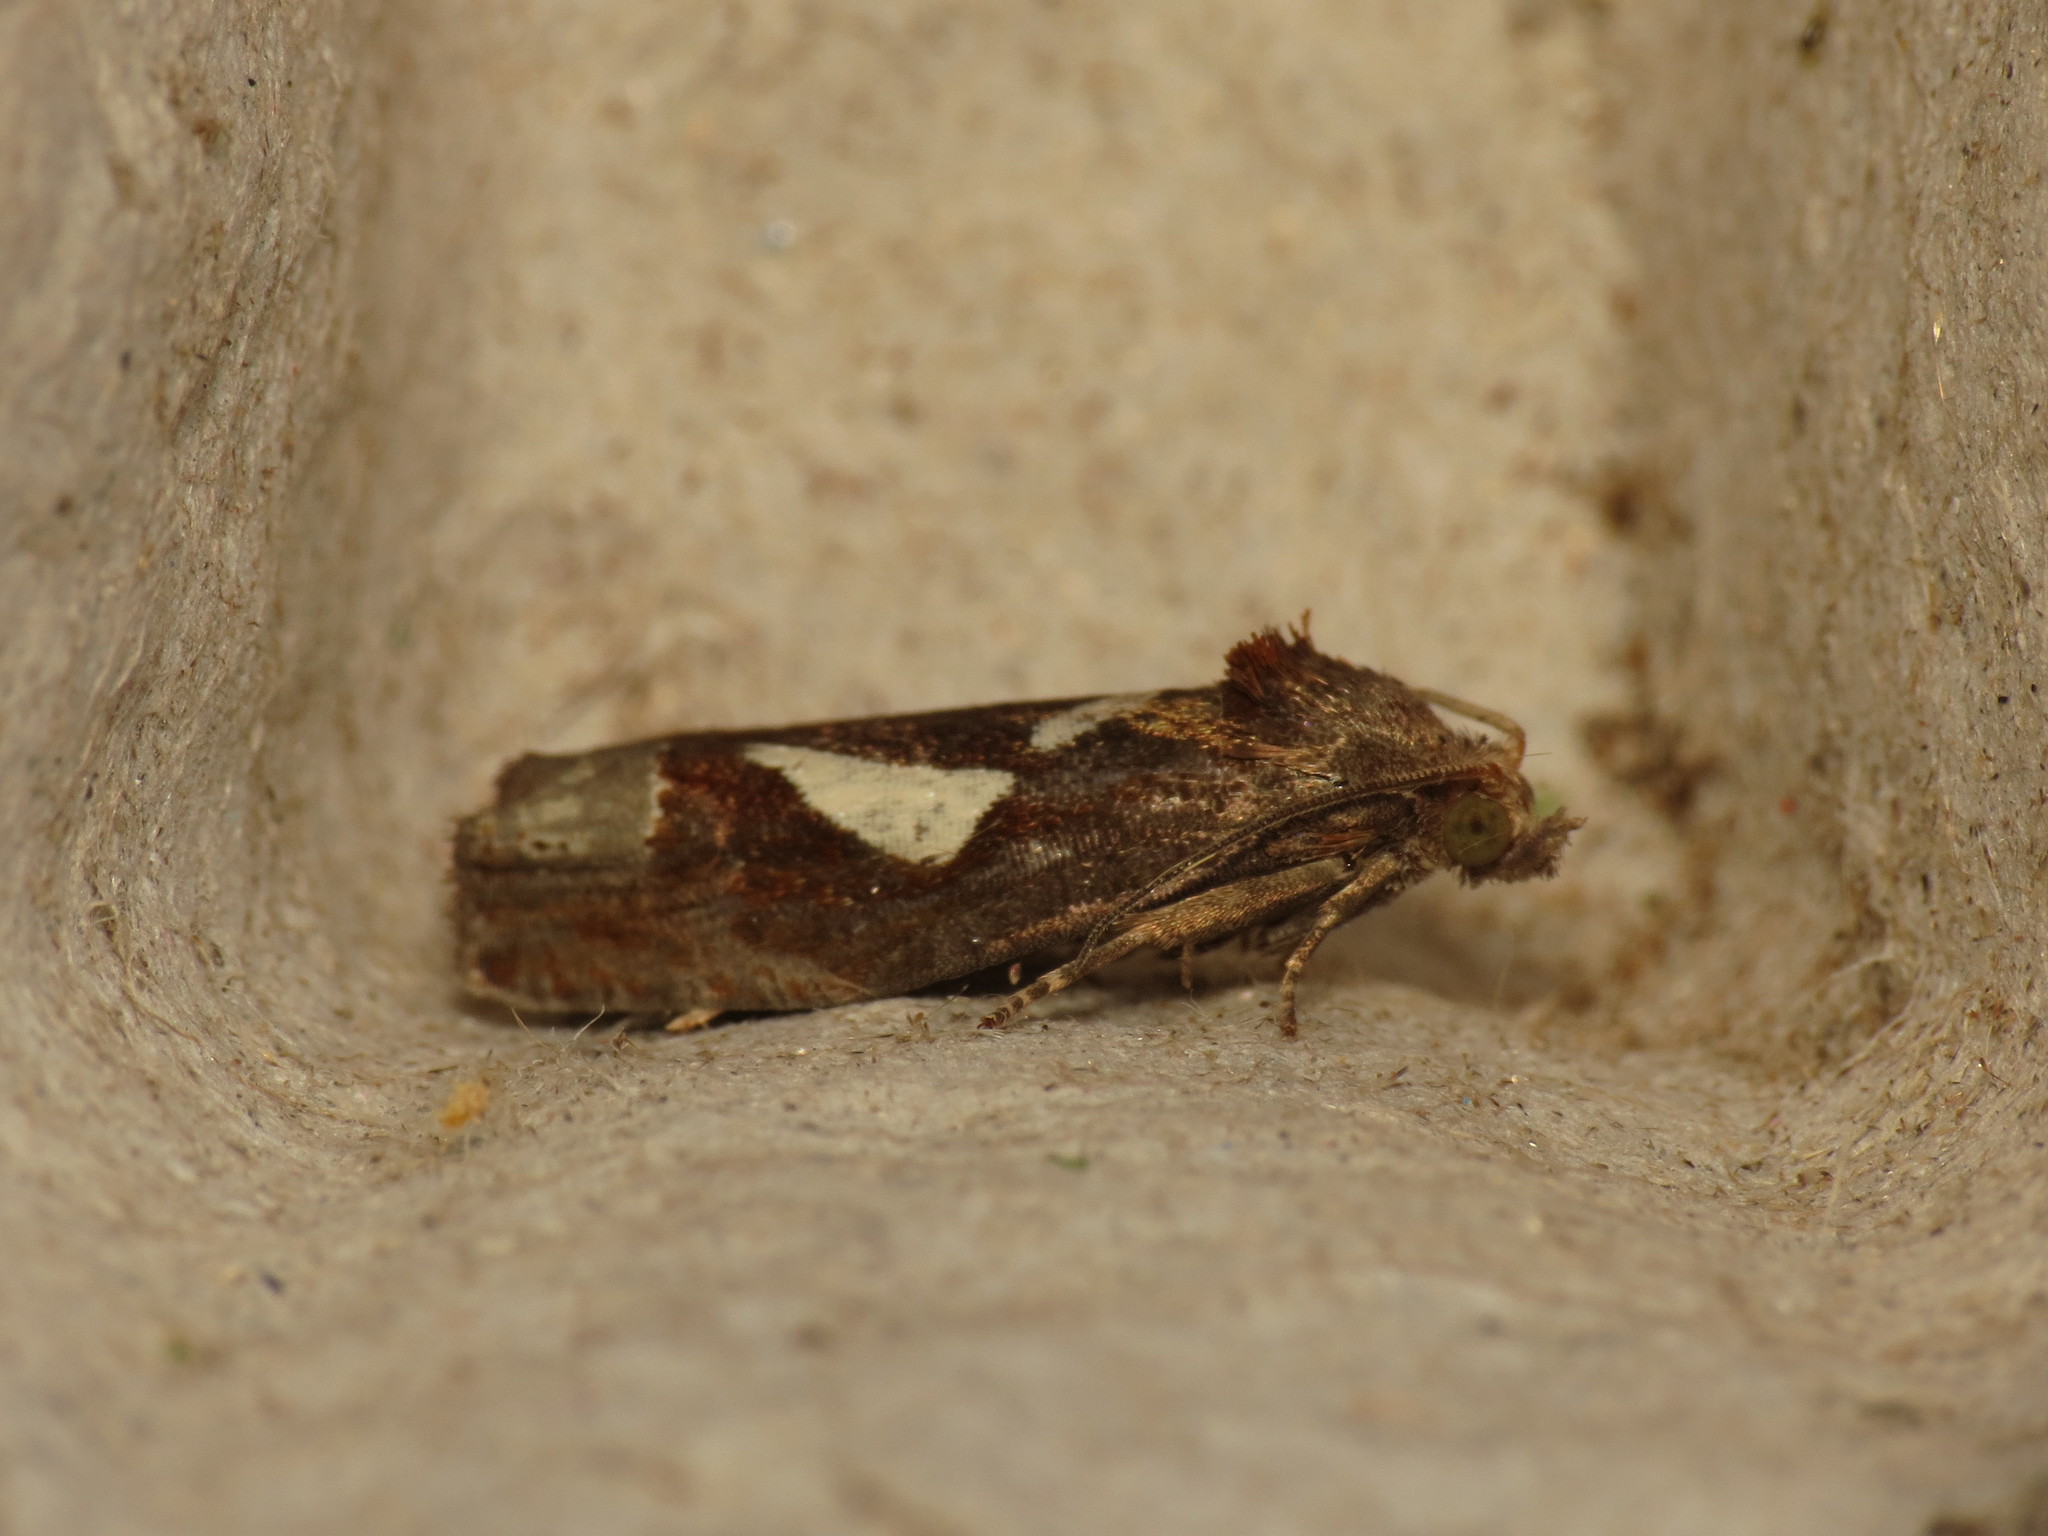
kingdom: Animalia
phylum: Arthropoda
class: Insecta
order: Lepidoptera
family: Tortricidae
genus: Epiblema
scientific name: Epiblema foenella
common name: White-foot bell
